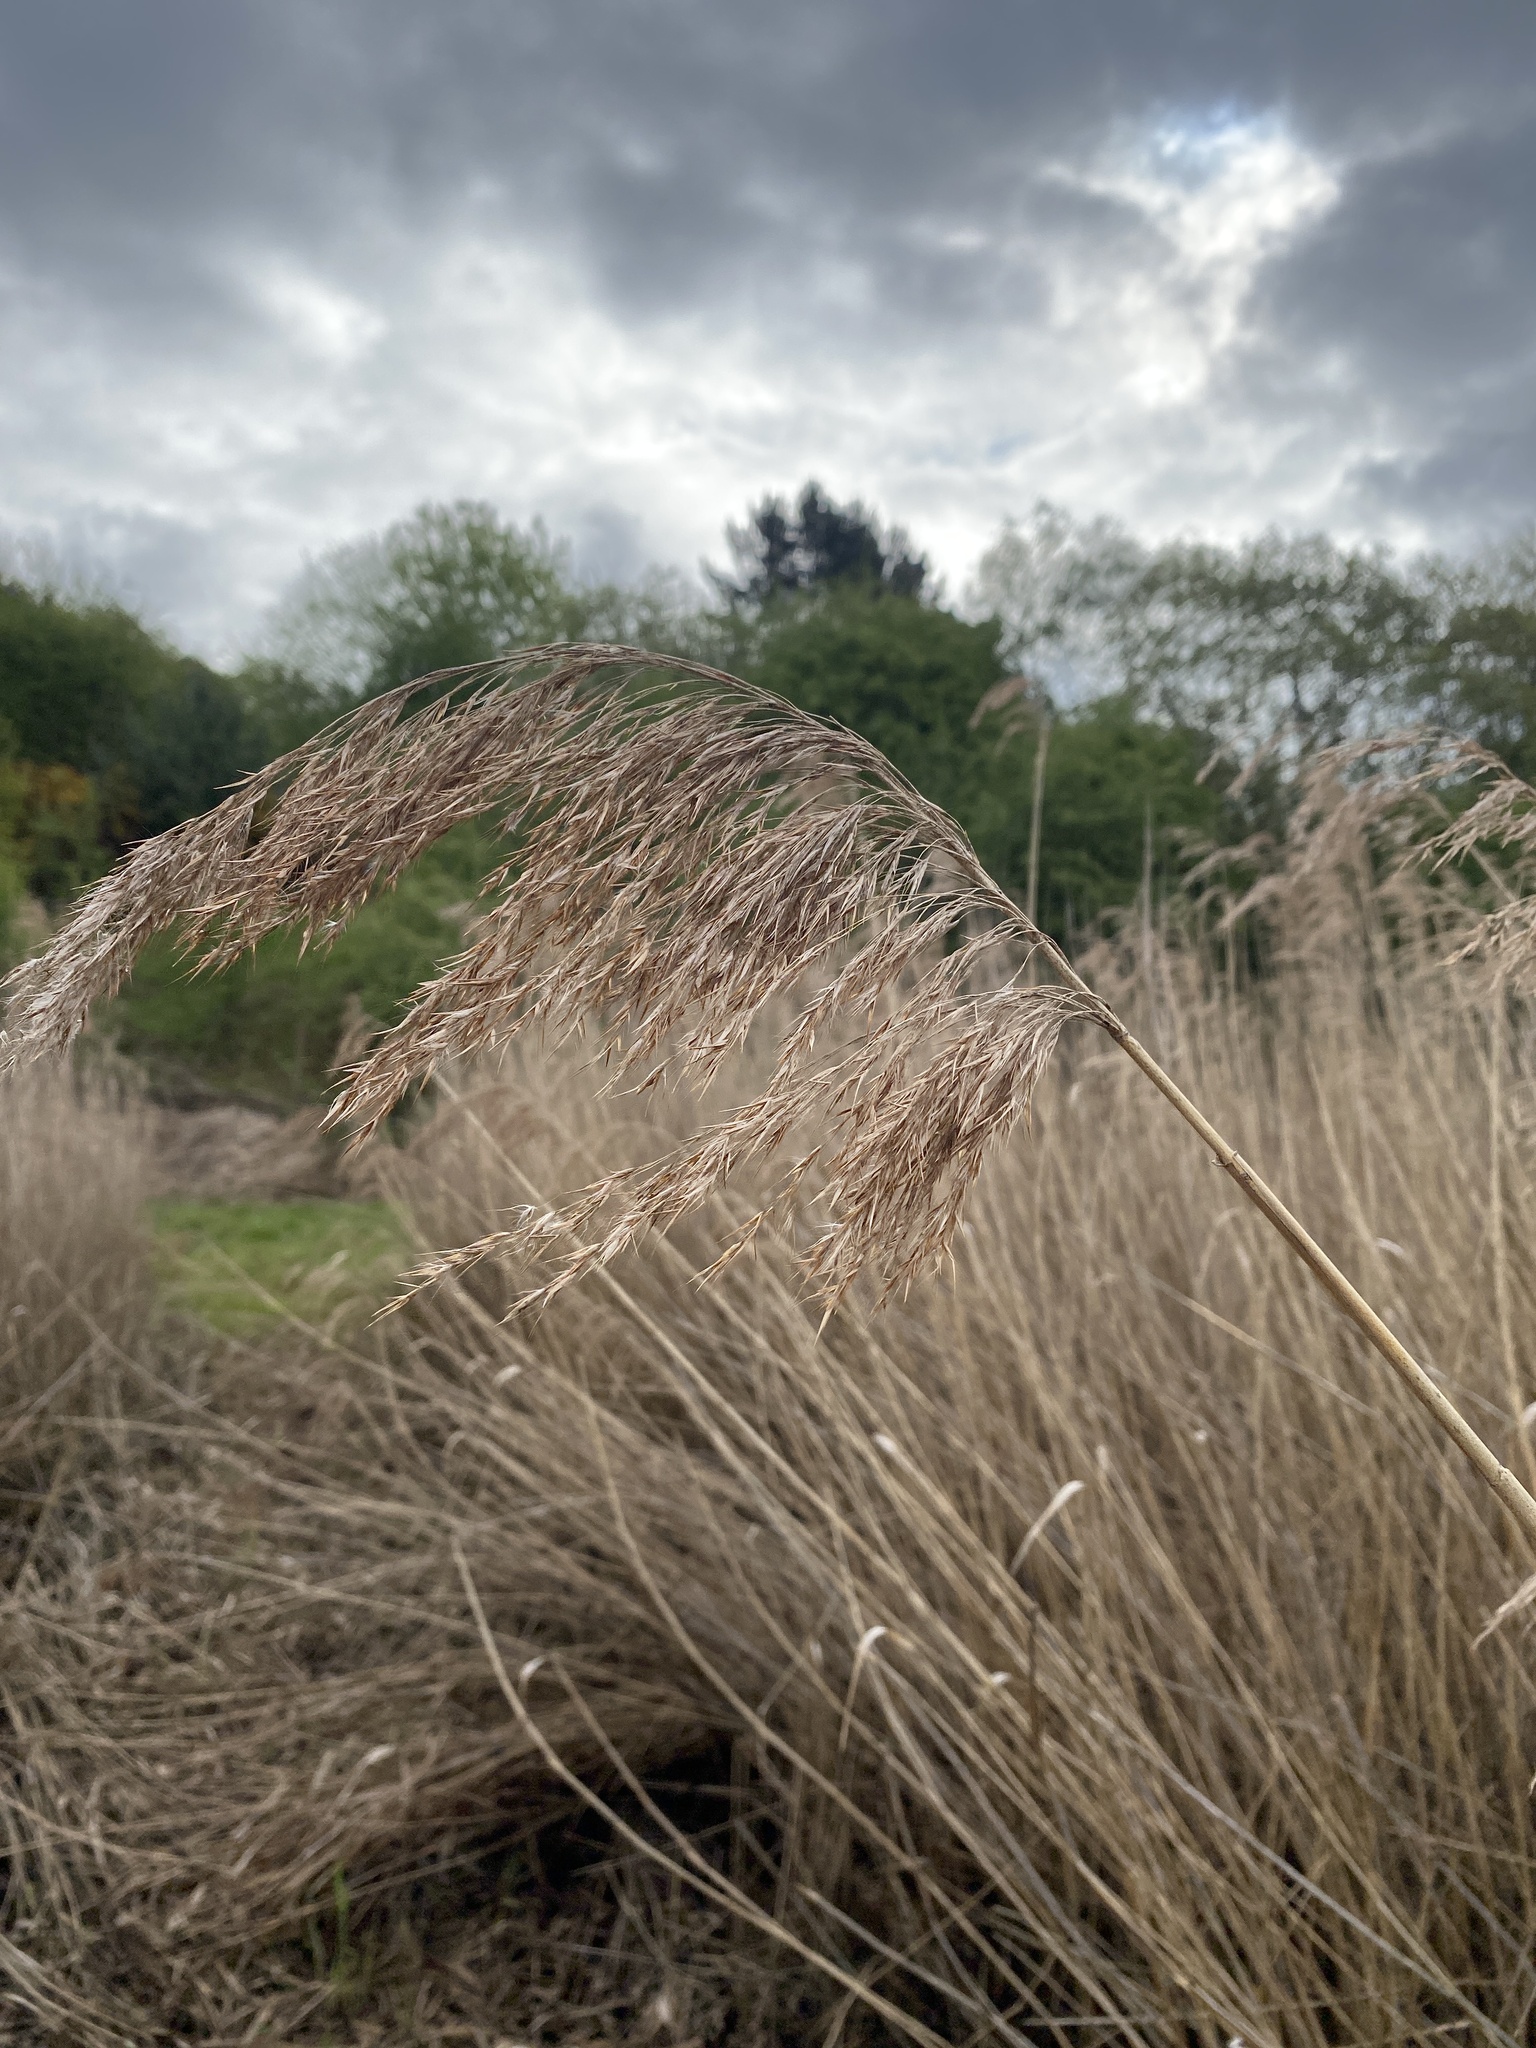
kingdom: Plantae
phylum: Tracheophyta
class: Liliopsida
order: Poales
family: Poaceae
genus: Phragmites
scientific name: Phragmites australis
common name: Common reed
